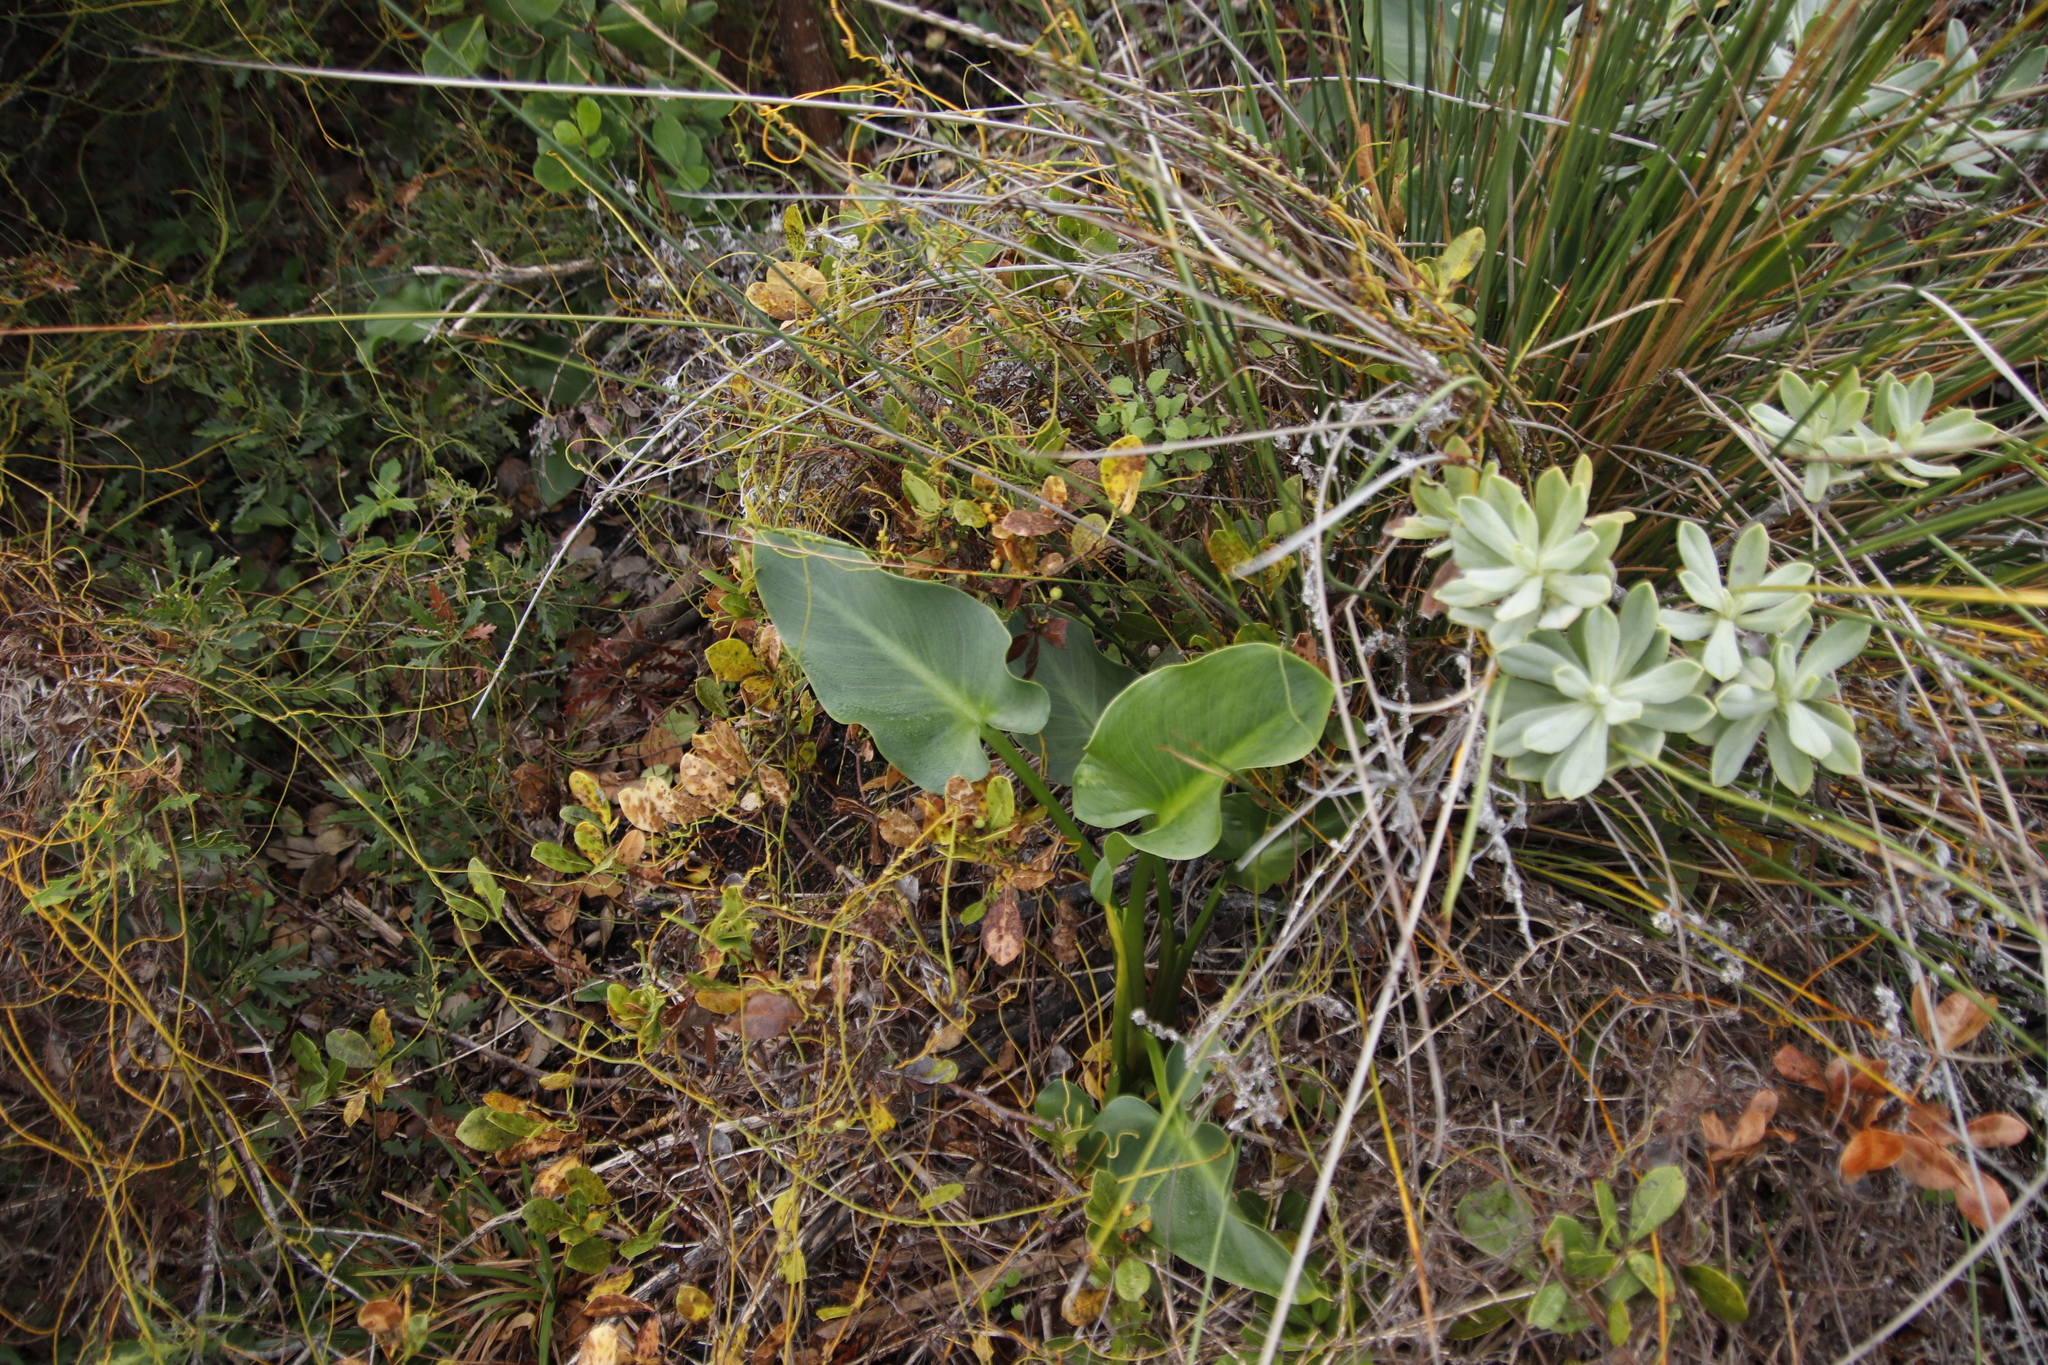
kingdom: Plantae
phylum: Tracheophyta
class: Liliopsida
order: Alismatales
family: Araceae
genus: Zantedeschia
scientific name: Zantedeschia aethiopica
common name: Altar-lily
